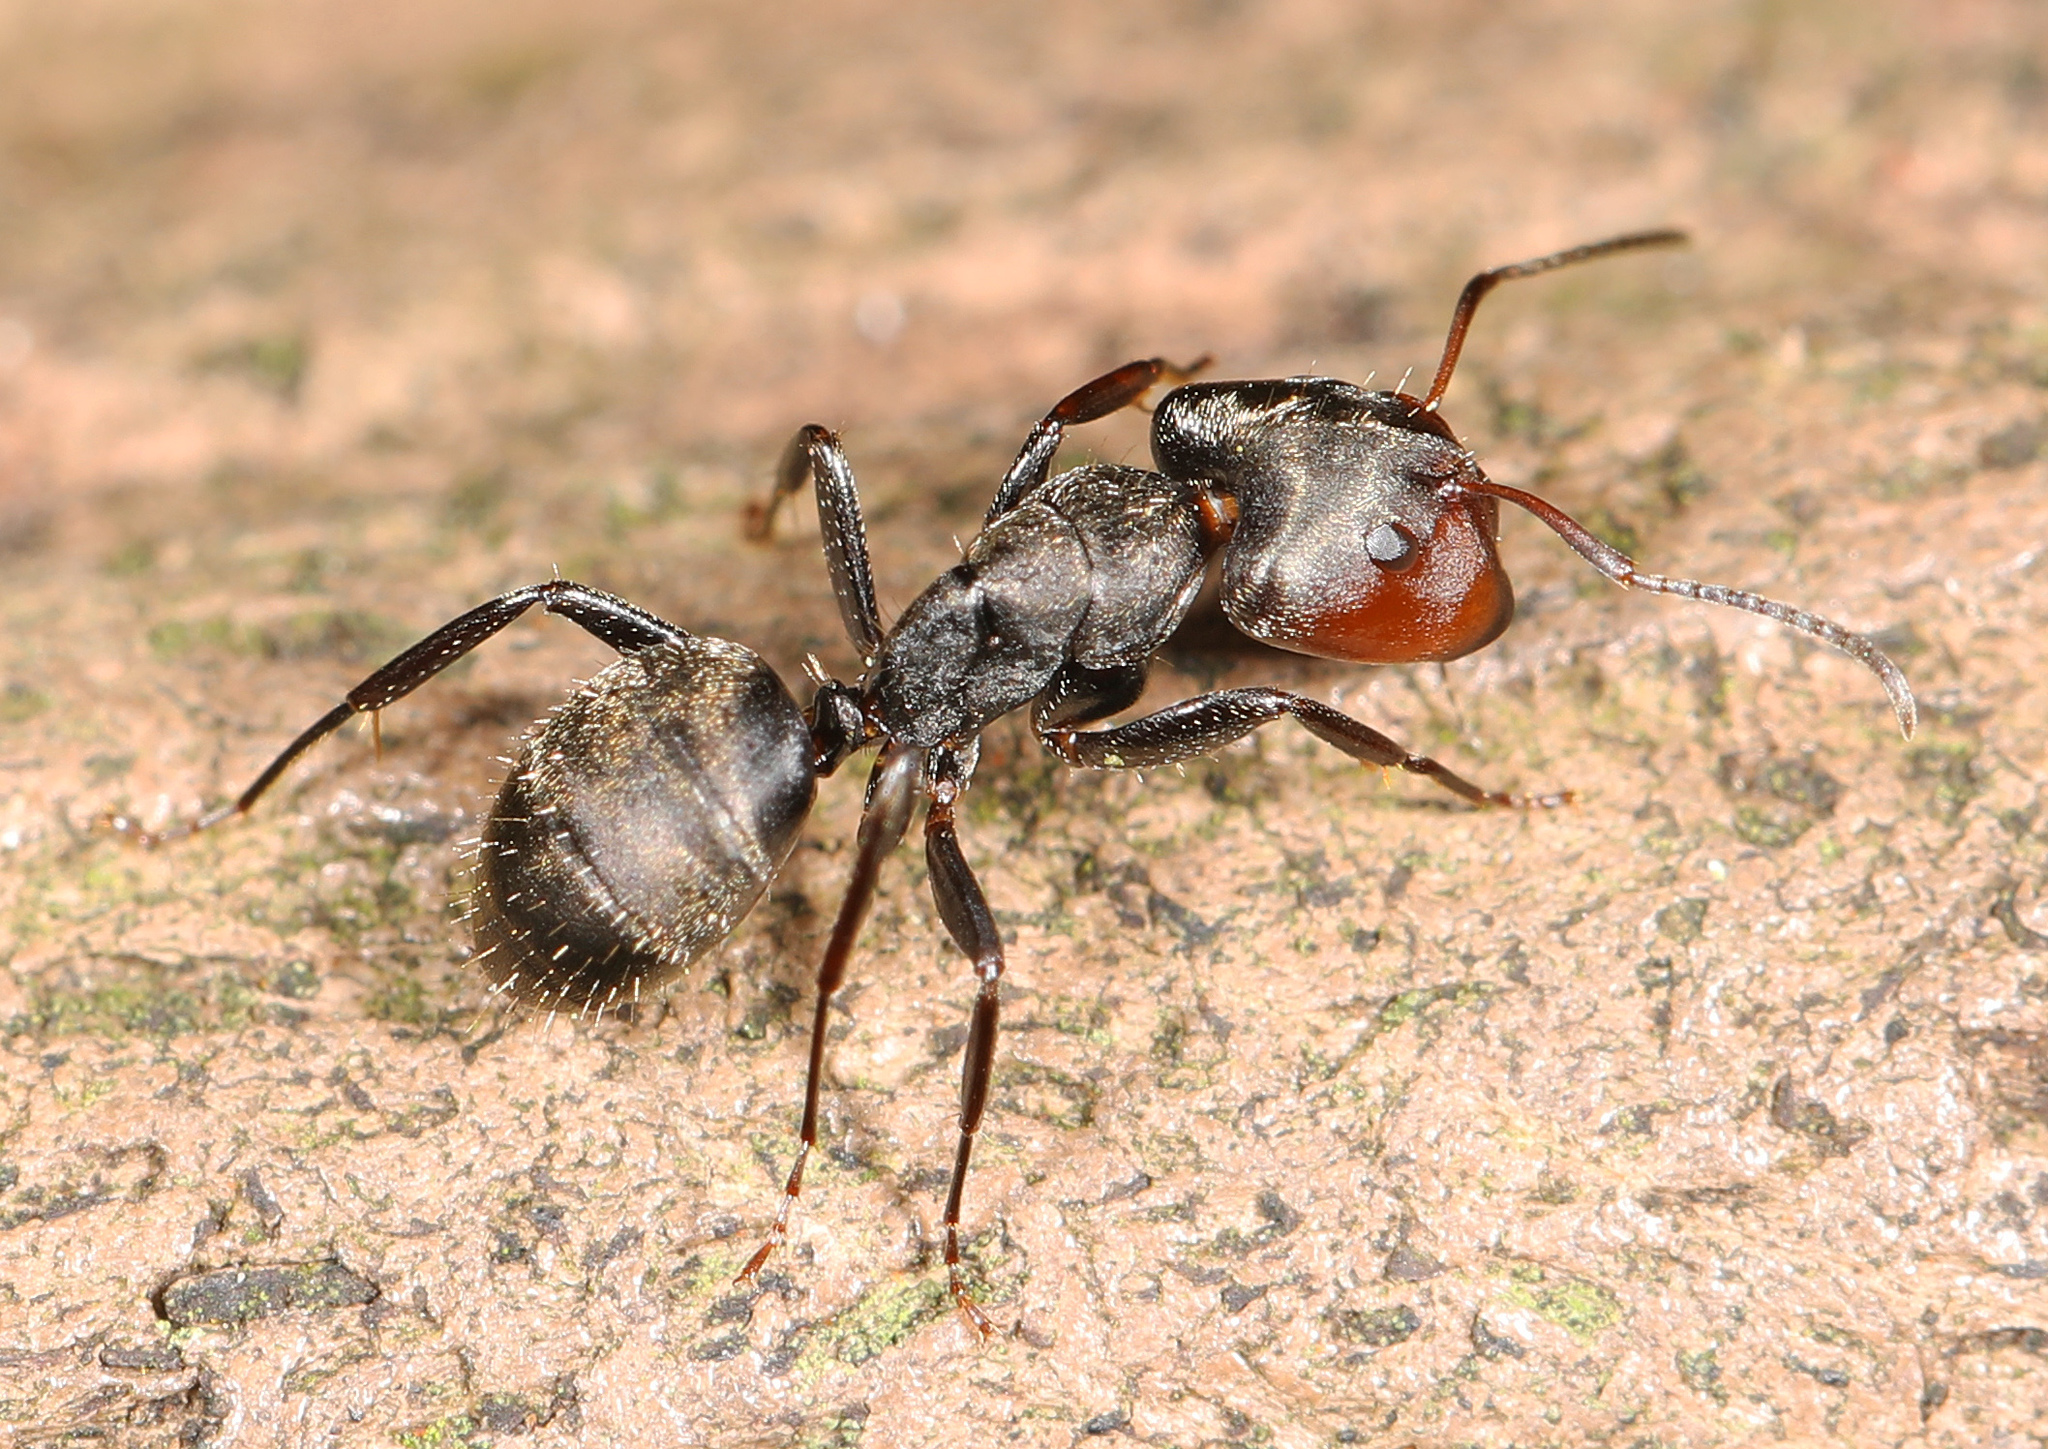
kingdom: Animalia
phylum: Arthropoda
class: Insecta
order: Hymenoptera
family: Formicidae
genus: Camponotus
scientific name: Camponotus novogranadensis
